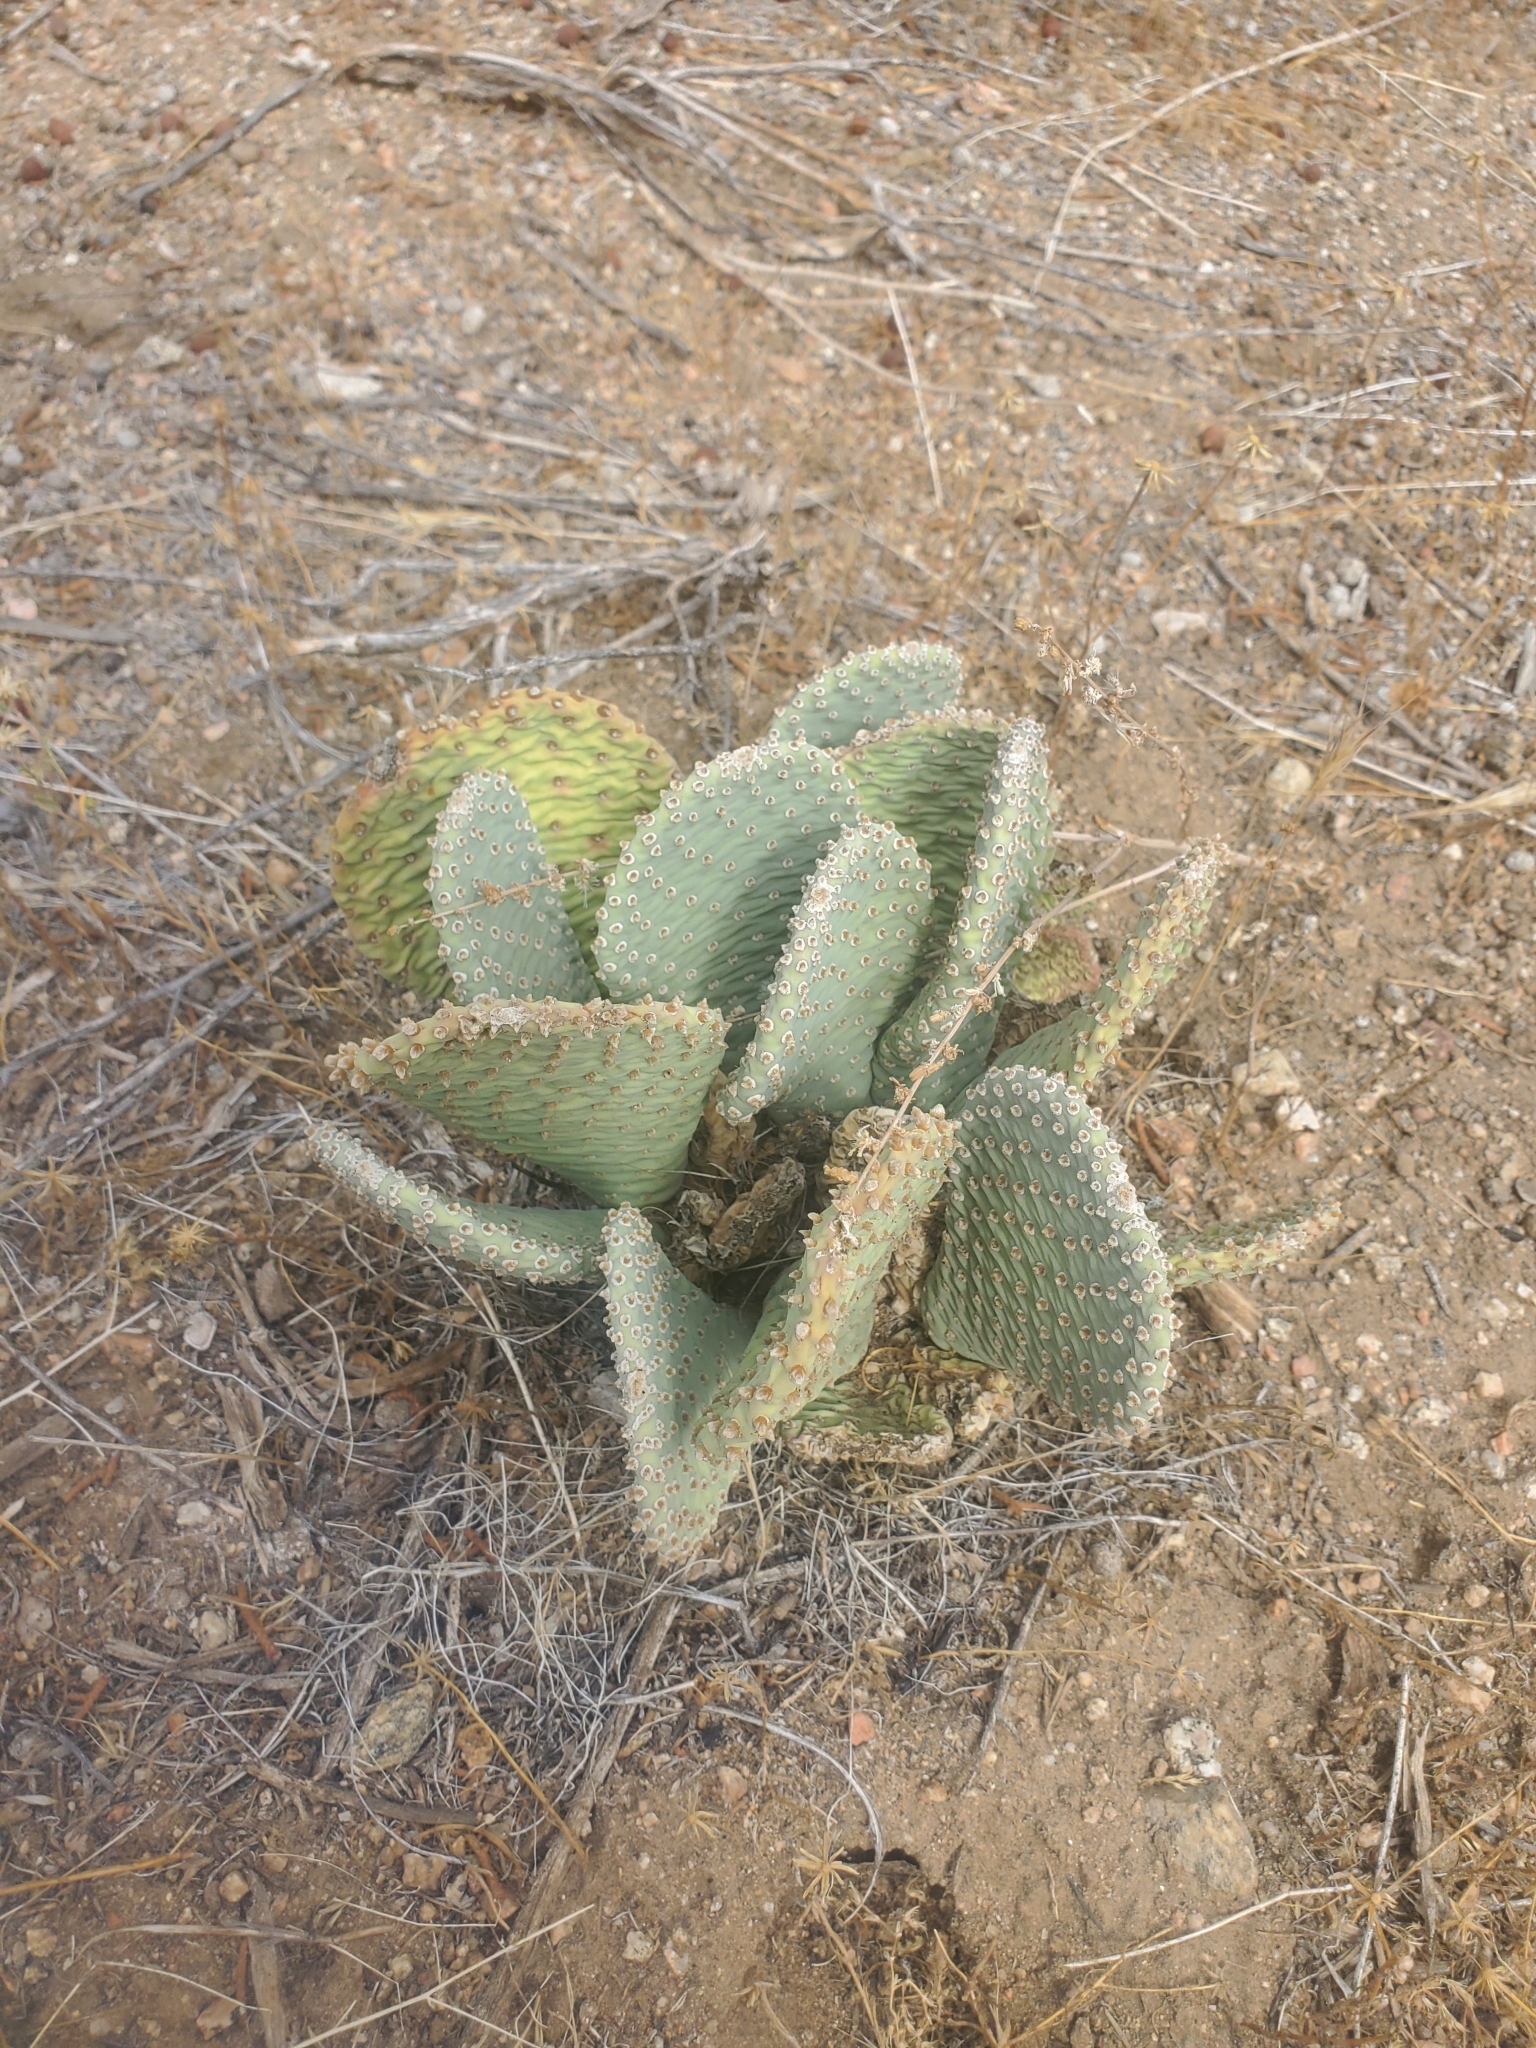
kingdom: Plantae
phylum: Tracheophyta
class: Magnoliopsida
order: Caryophyllales
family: Cactaceae
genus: Opuntia
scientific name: Opuntia basilaris
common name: Beavertail prickly-pear
